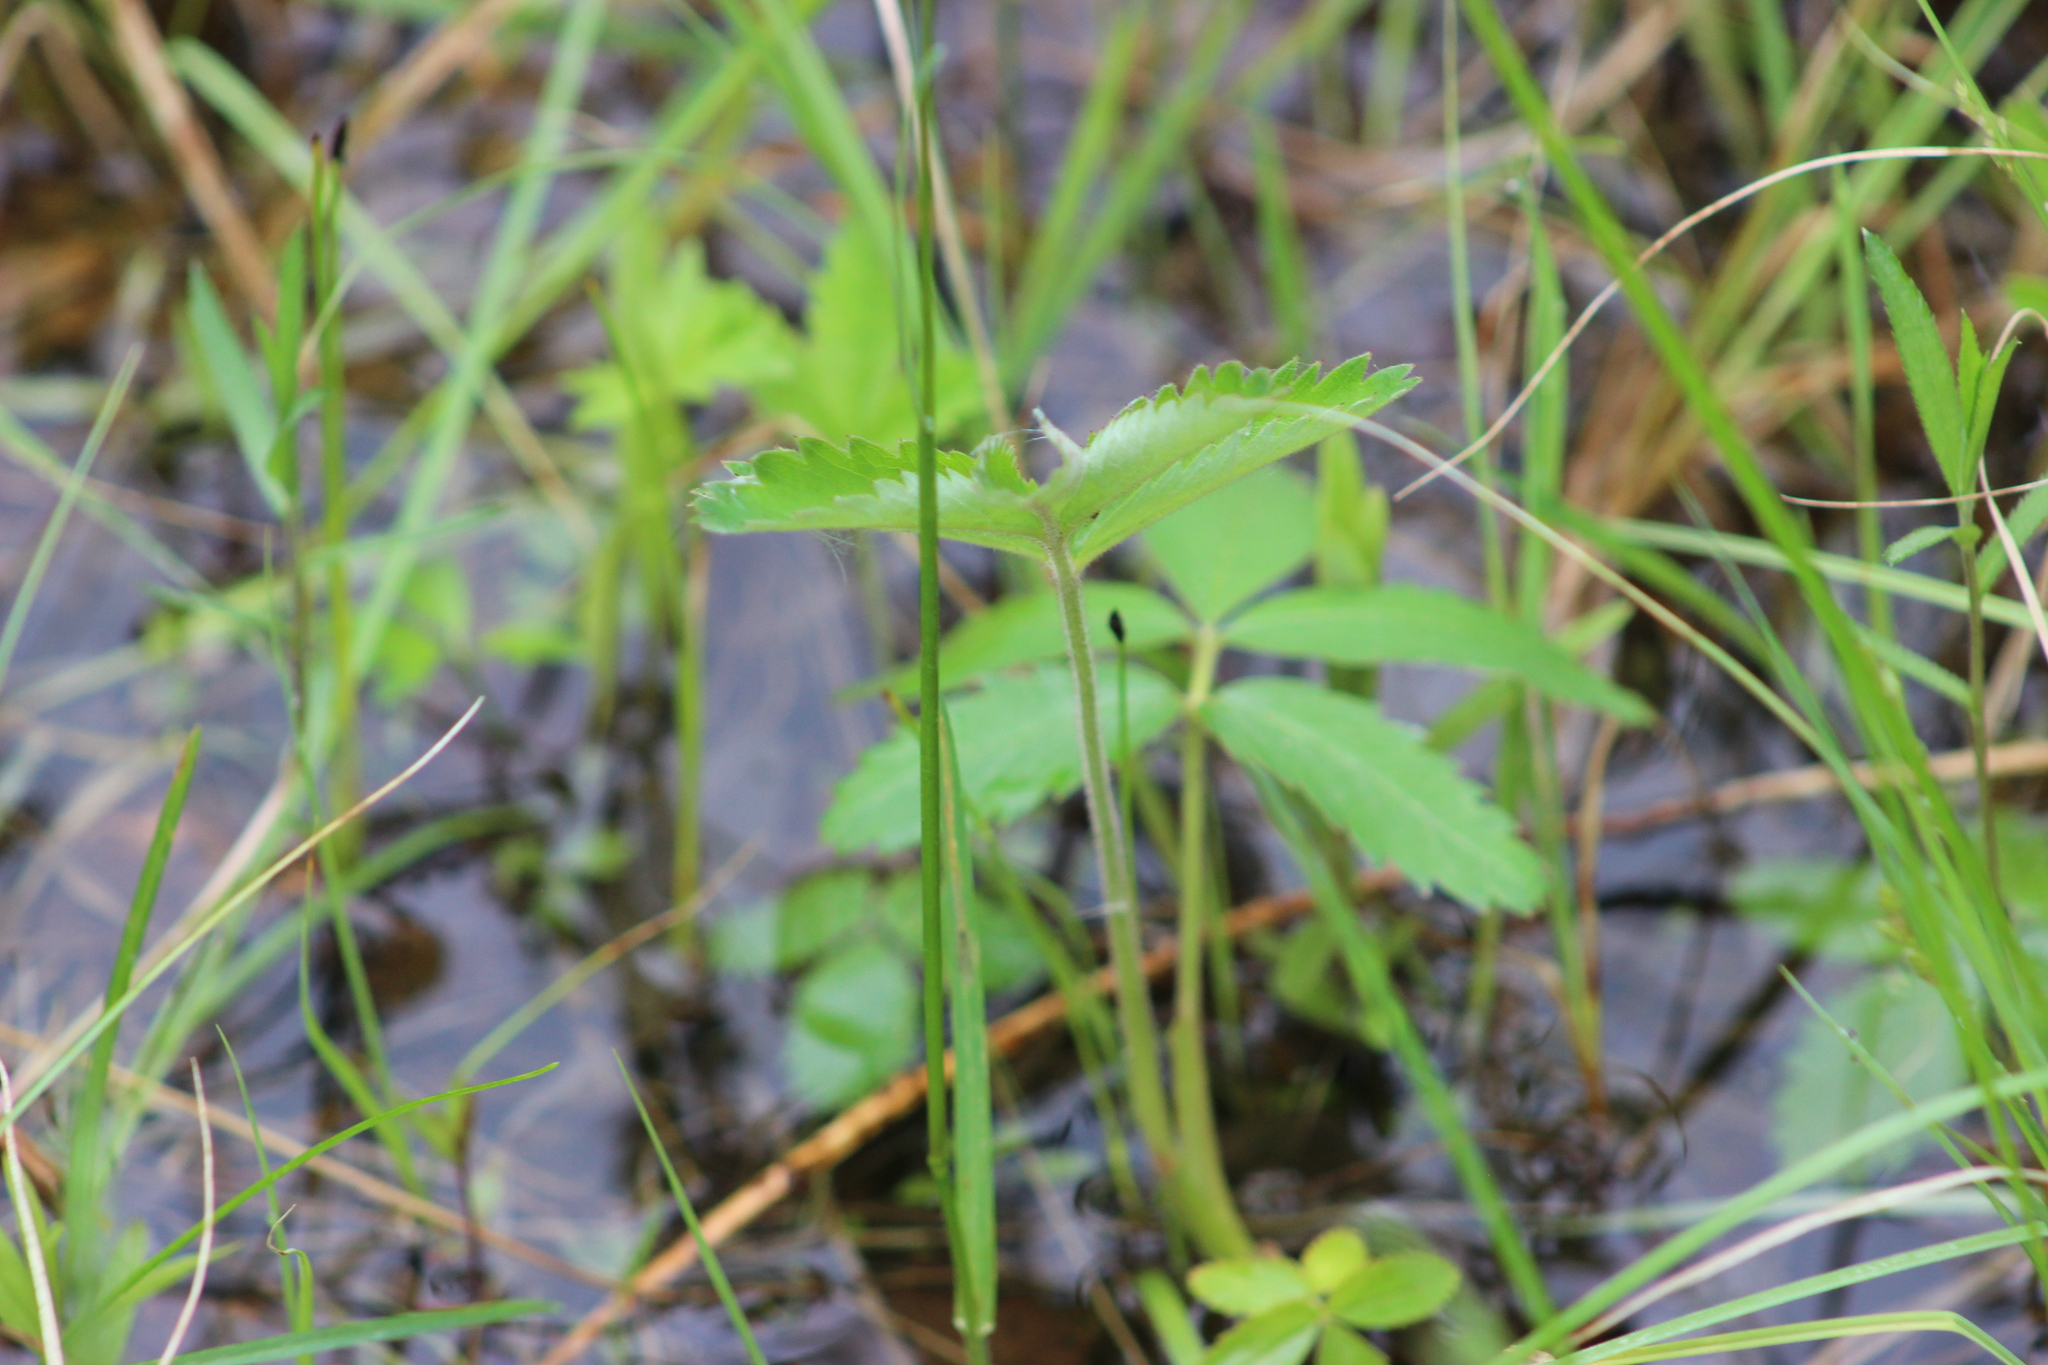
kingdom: Plantae
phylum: Tracheophyta
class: Magnoliopsida
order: Rosales
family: Rosaceae
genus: Comarum
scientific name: Comarum palustre
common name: Marsh cinquefoil
